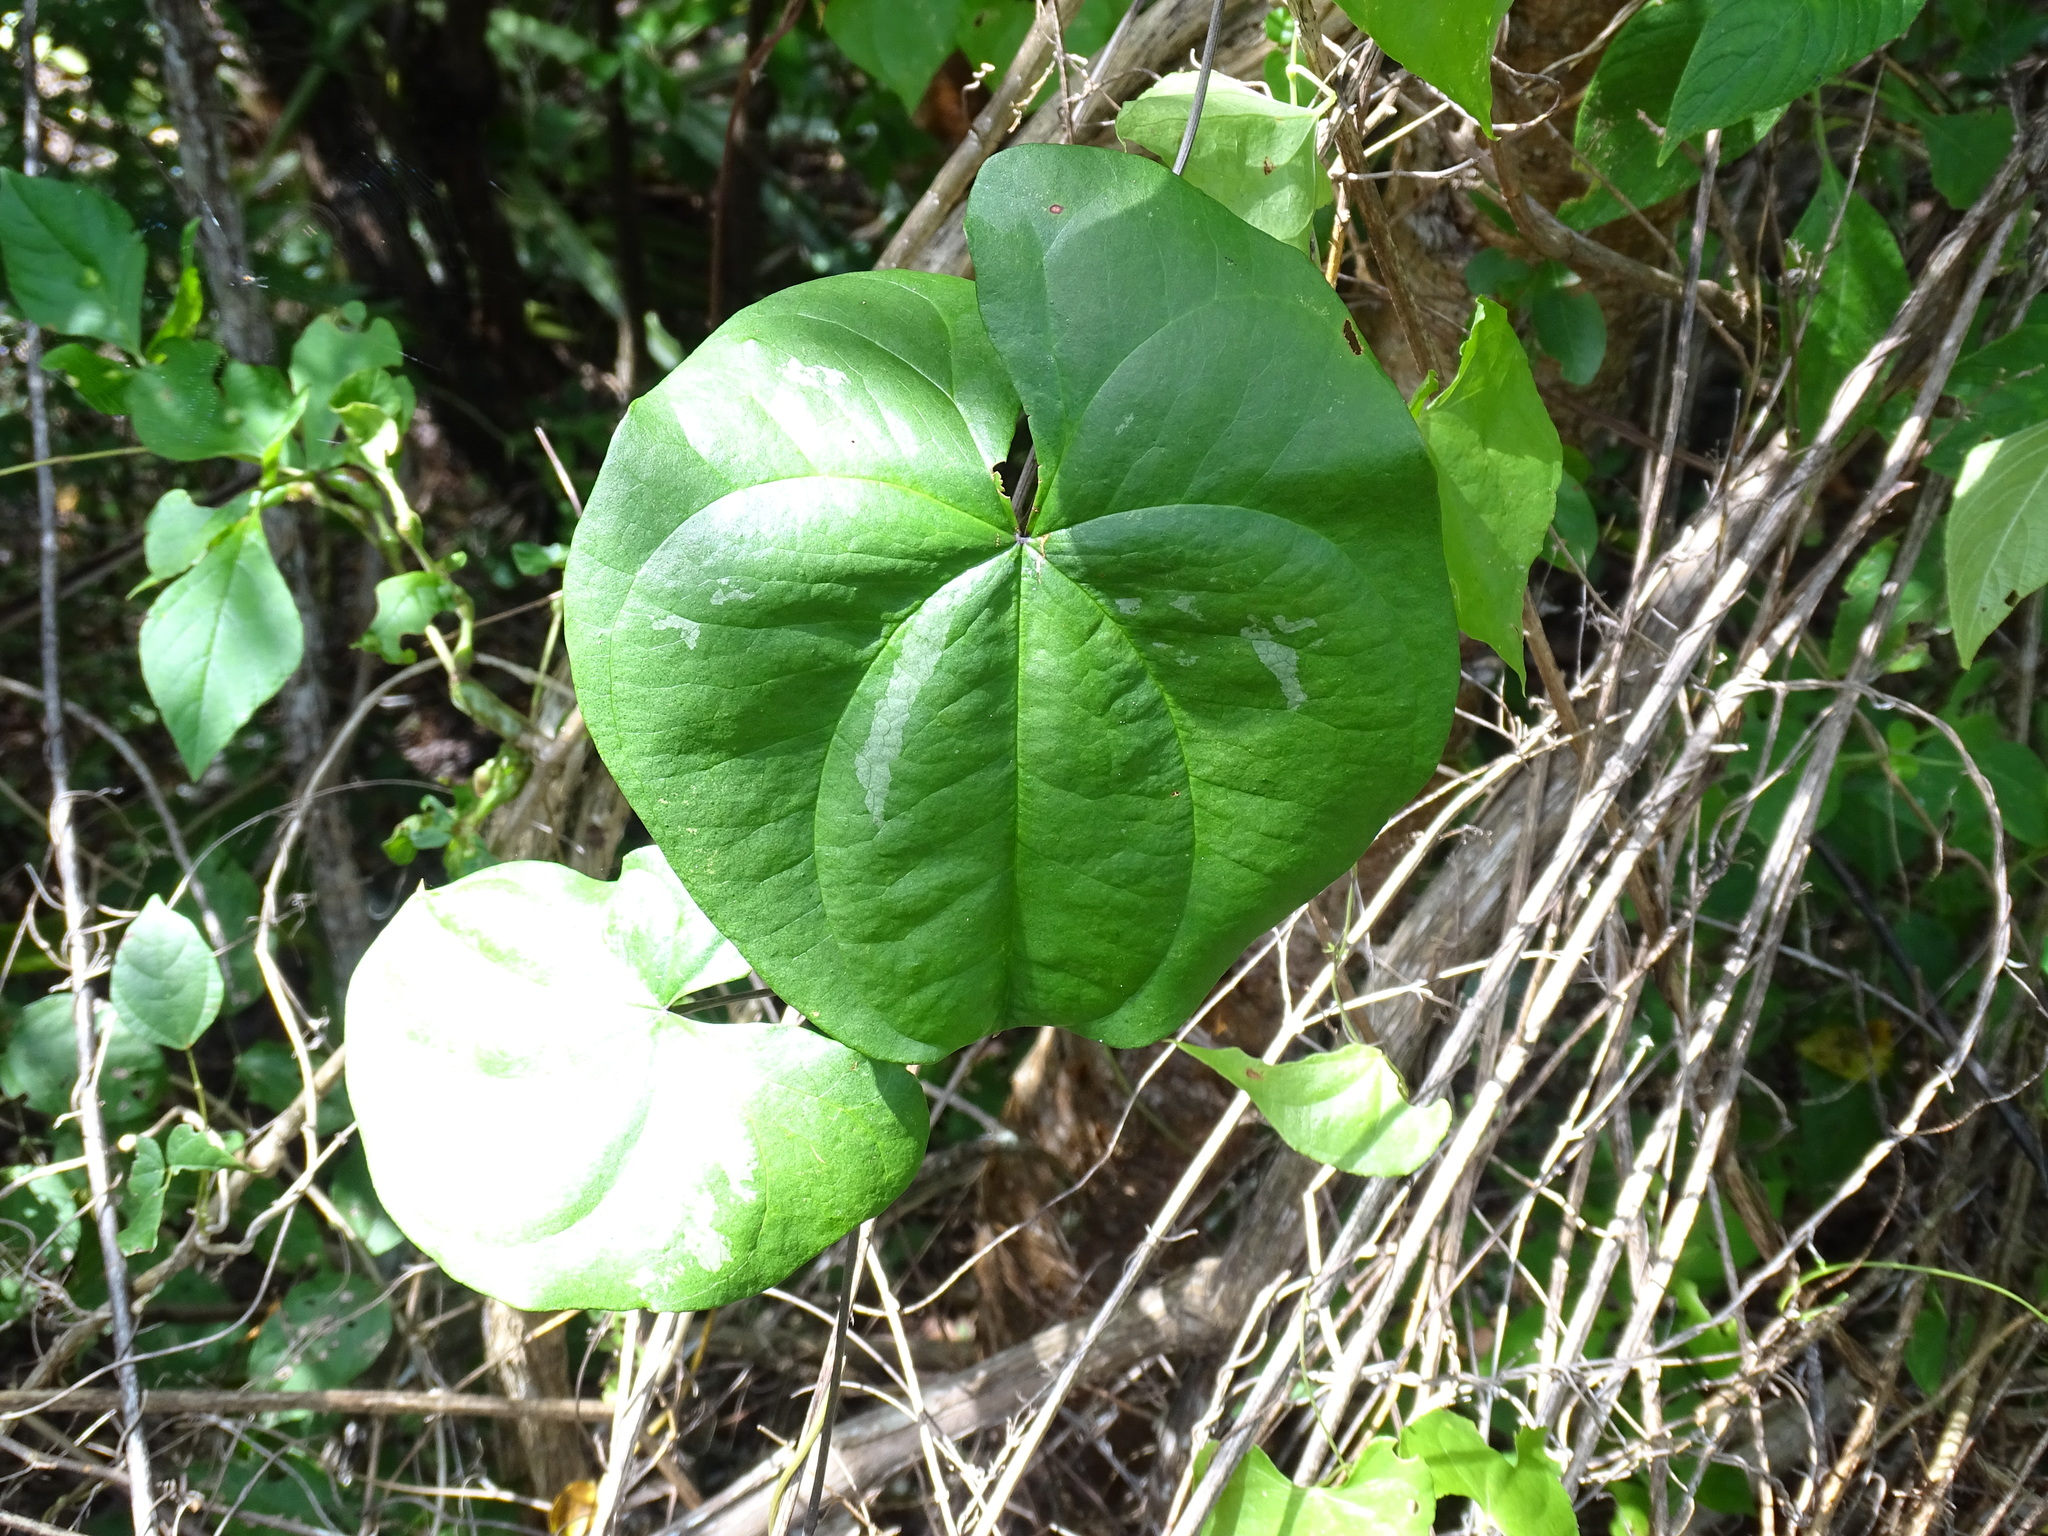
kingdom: Plantae
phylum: Tracheophyta
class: Liliopsida
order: Dioscoreales
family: Dioscoreaceae
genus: Dioscorea
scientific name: Dioscorea floribunda
